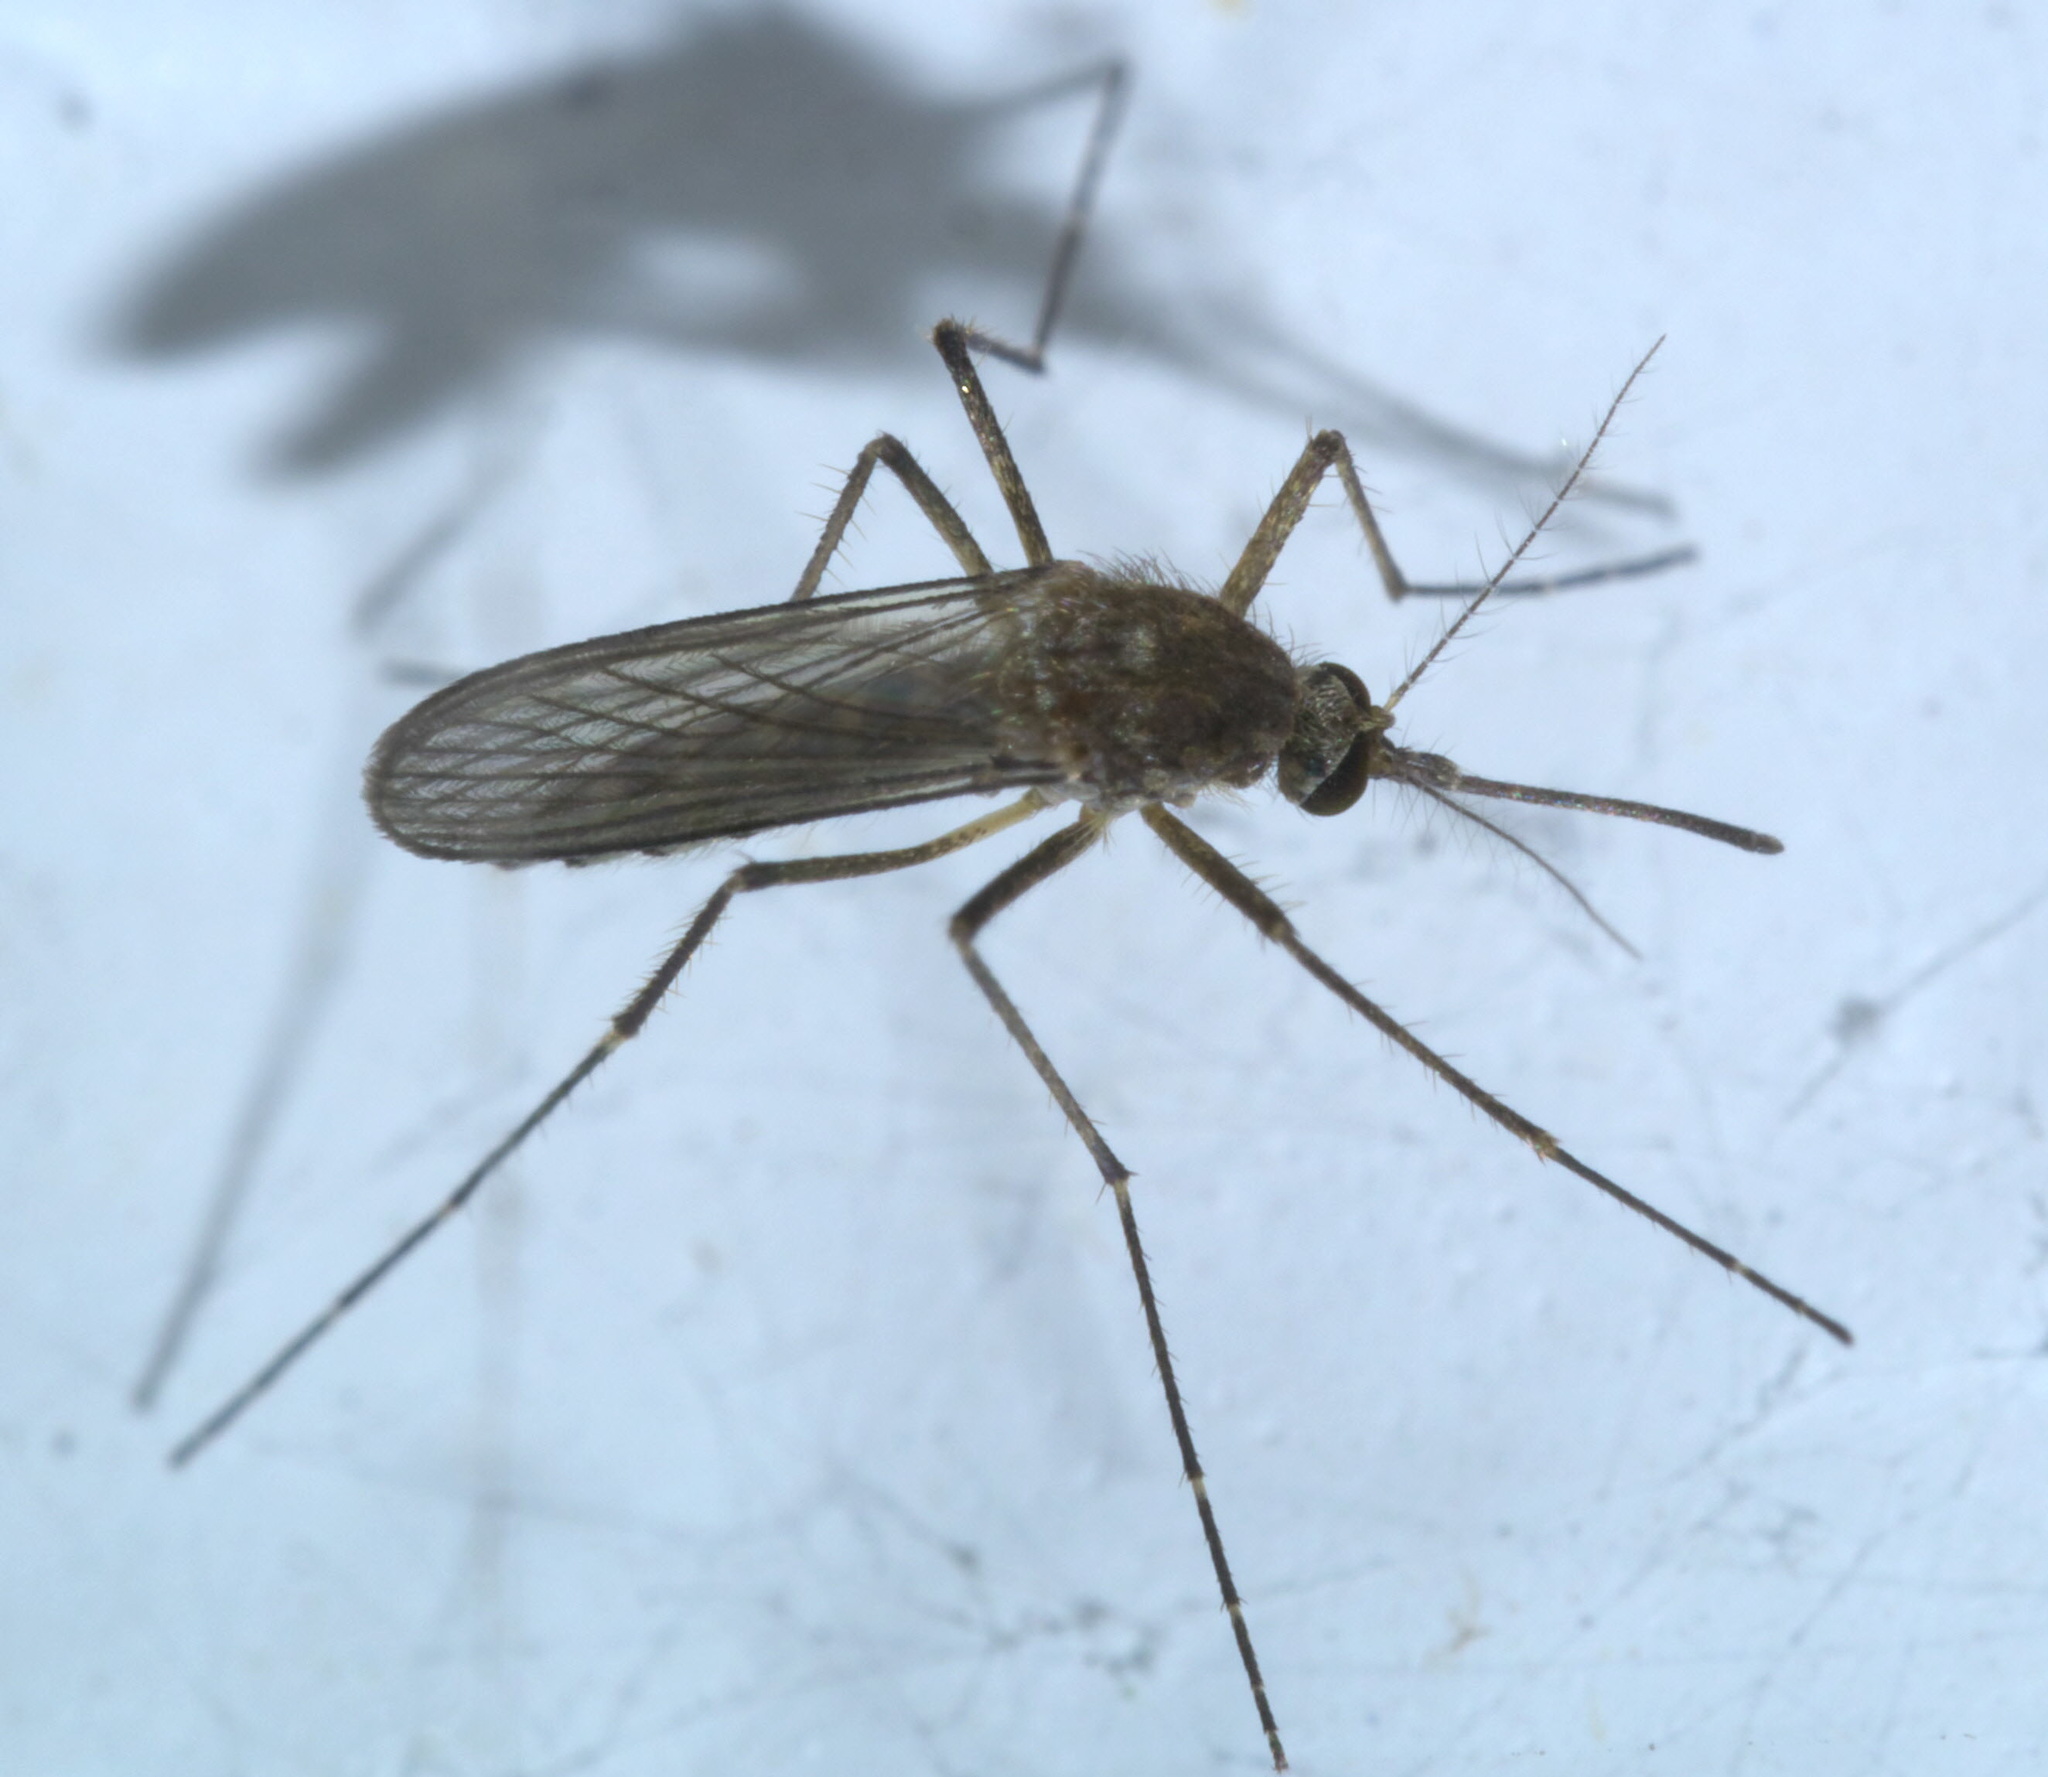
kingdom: Animalia
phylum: Arthropoda
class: Insecta
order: Diptera
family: Culicidae
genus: Aedes
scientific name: Aedes vexans
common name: Inland floodwater mosquito
